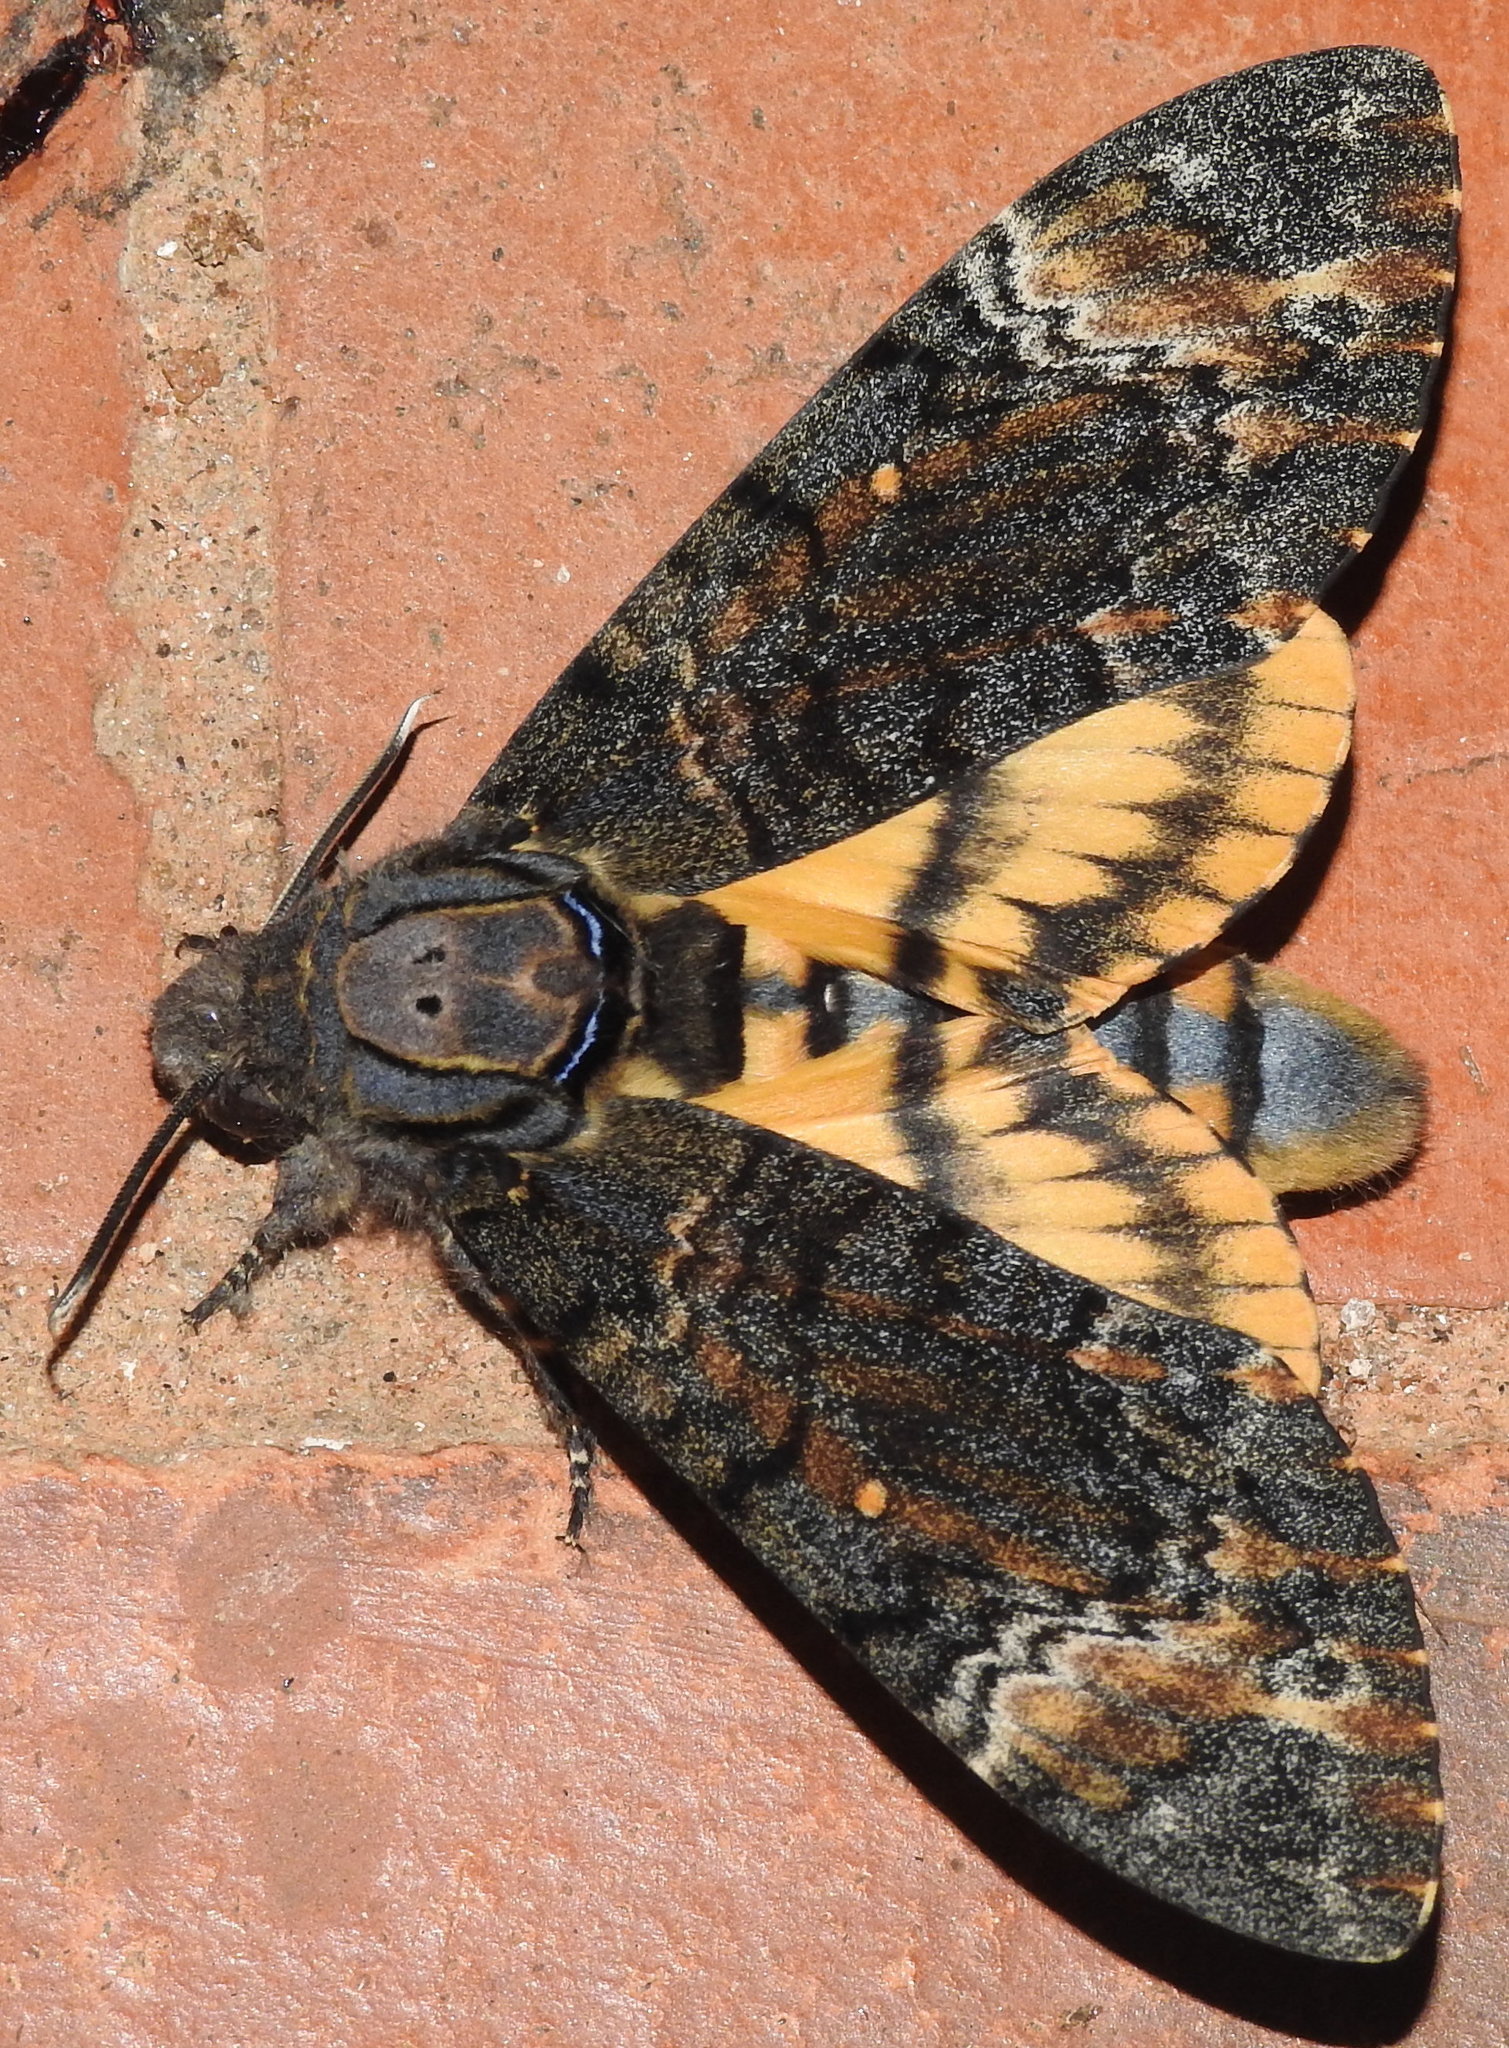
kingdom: Animalia
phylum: Arthropoda
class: Insecta
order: Lepidoptera
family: Sphingidae
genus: Acherontia
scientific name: Acherontia styx
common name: Death's-head hawk moth
